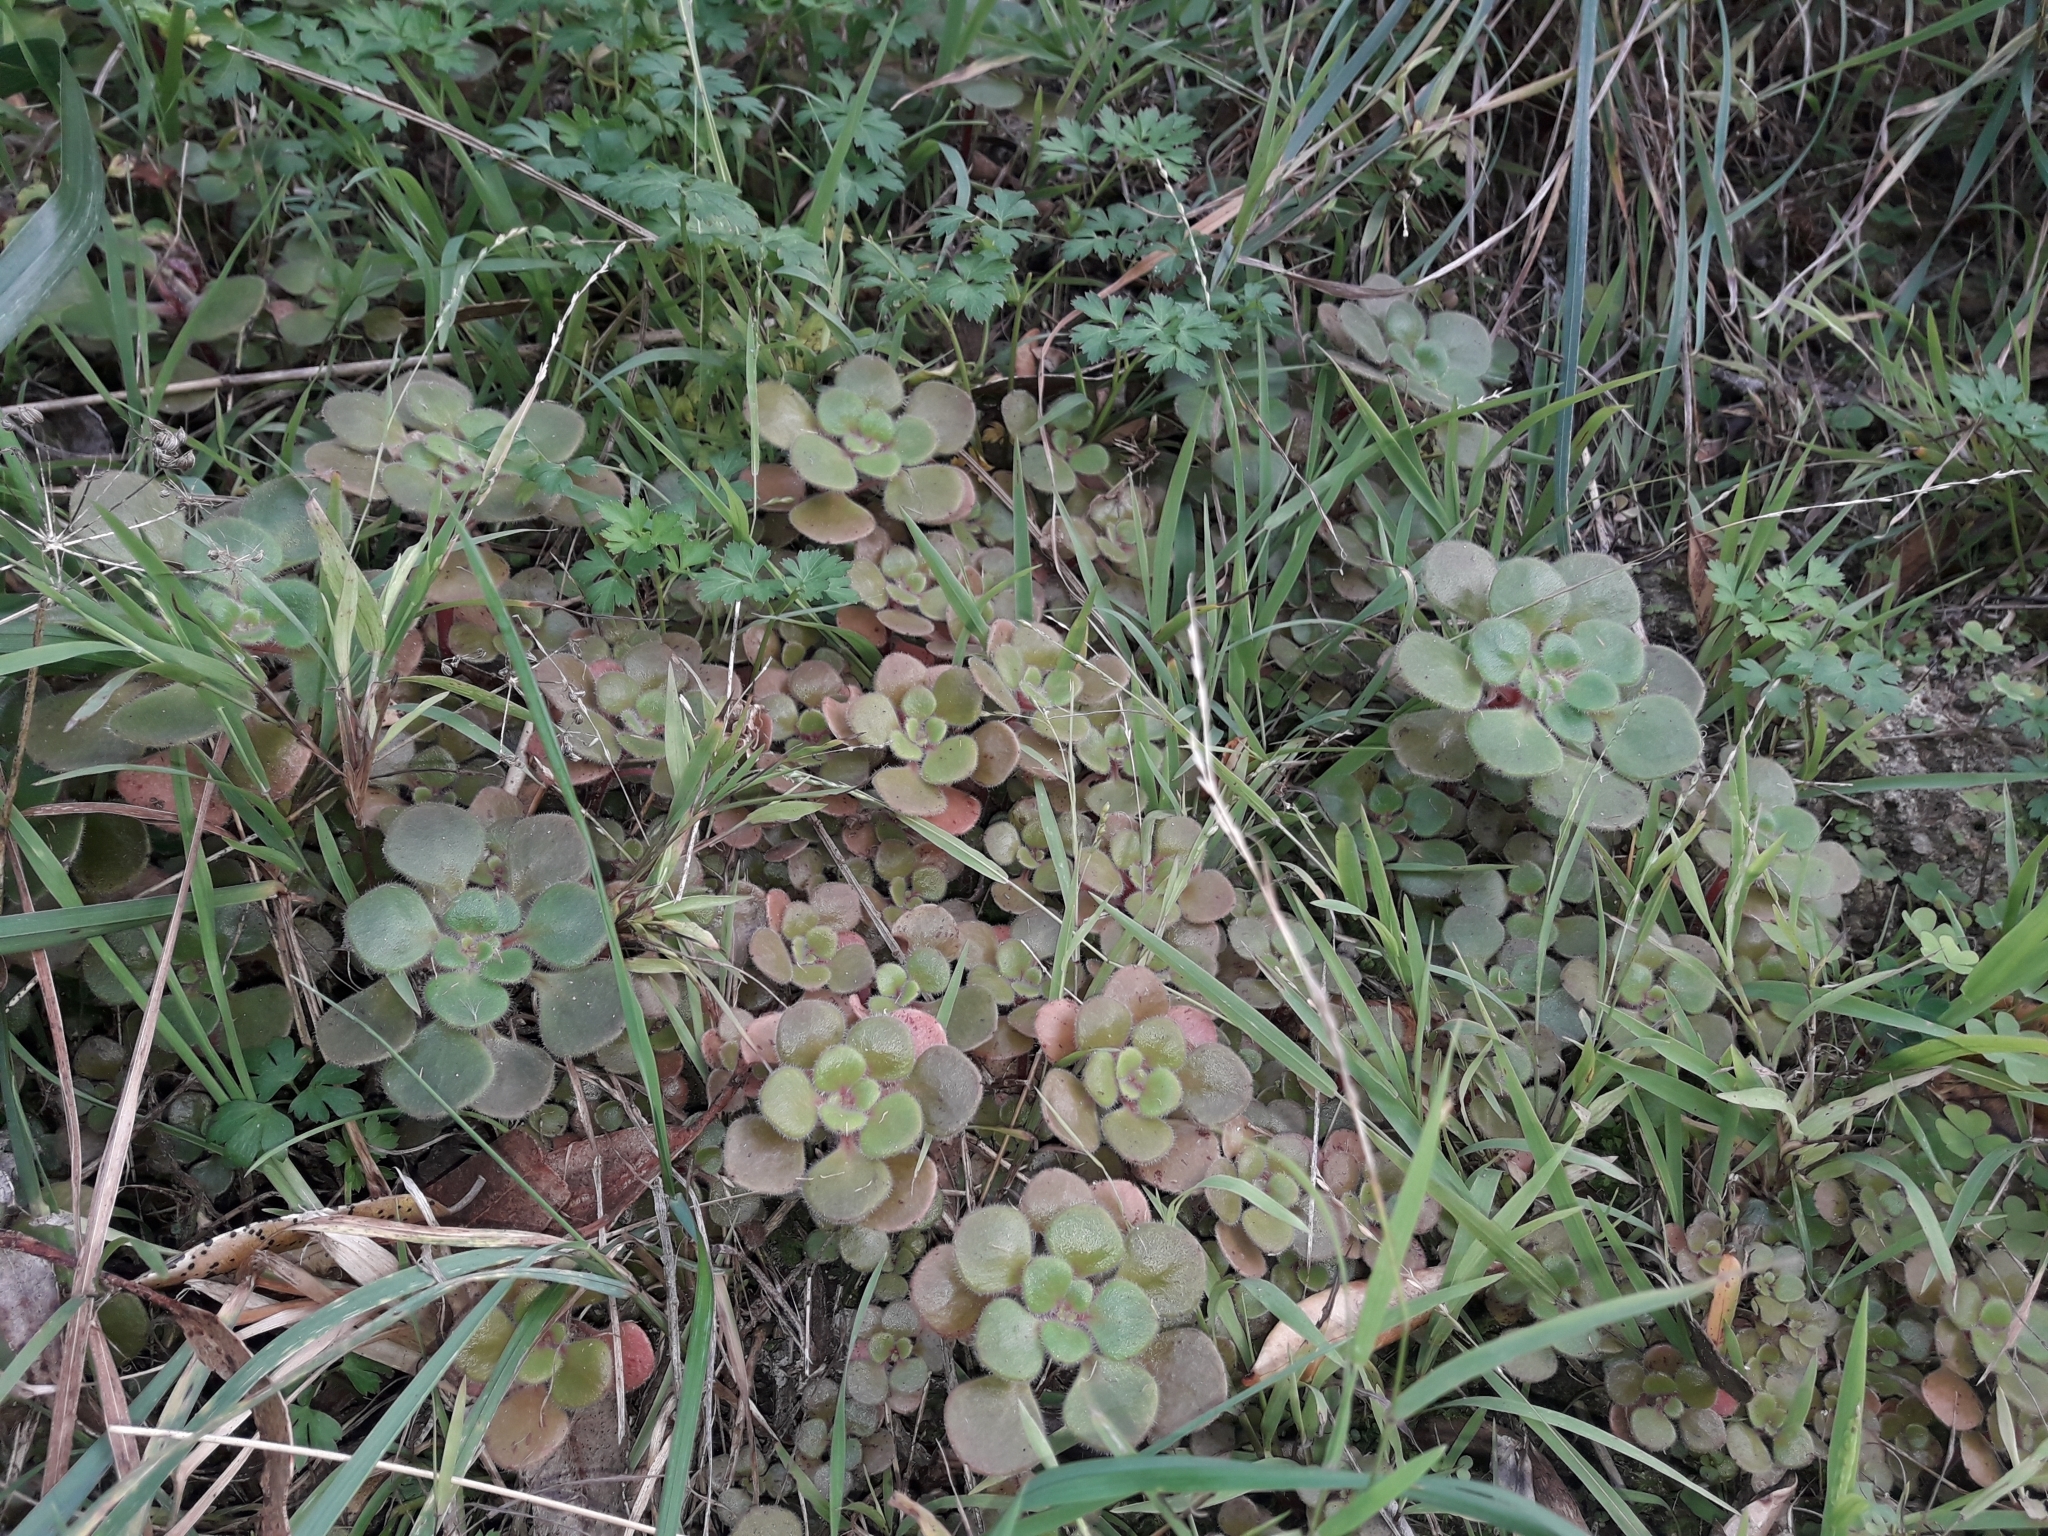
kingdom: Plantae
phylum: Tracheophyta
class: Magnoliopsida
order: Saxifragales
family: Crassulaceae
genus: Aichryson
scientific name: Aichryson laxum
